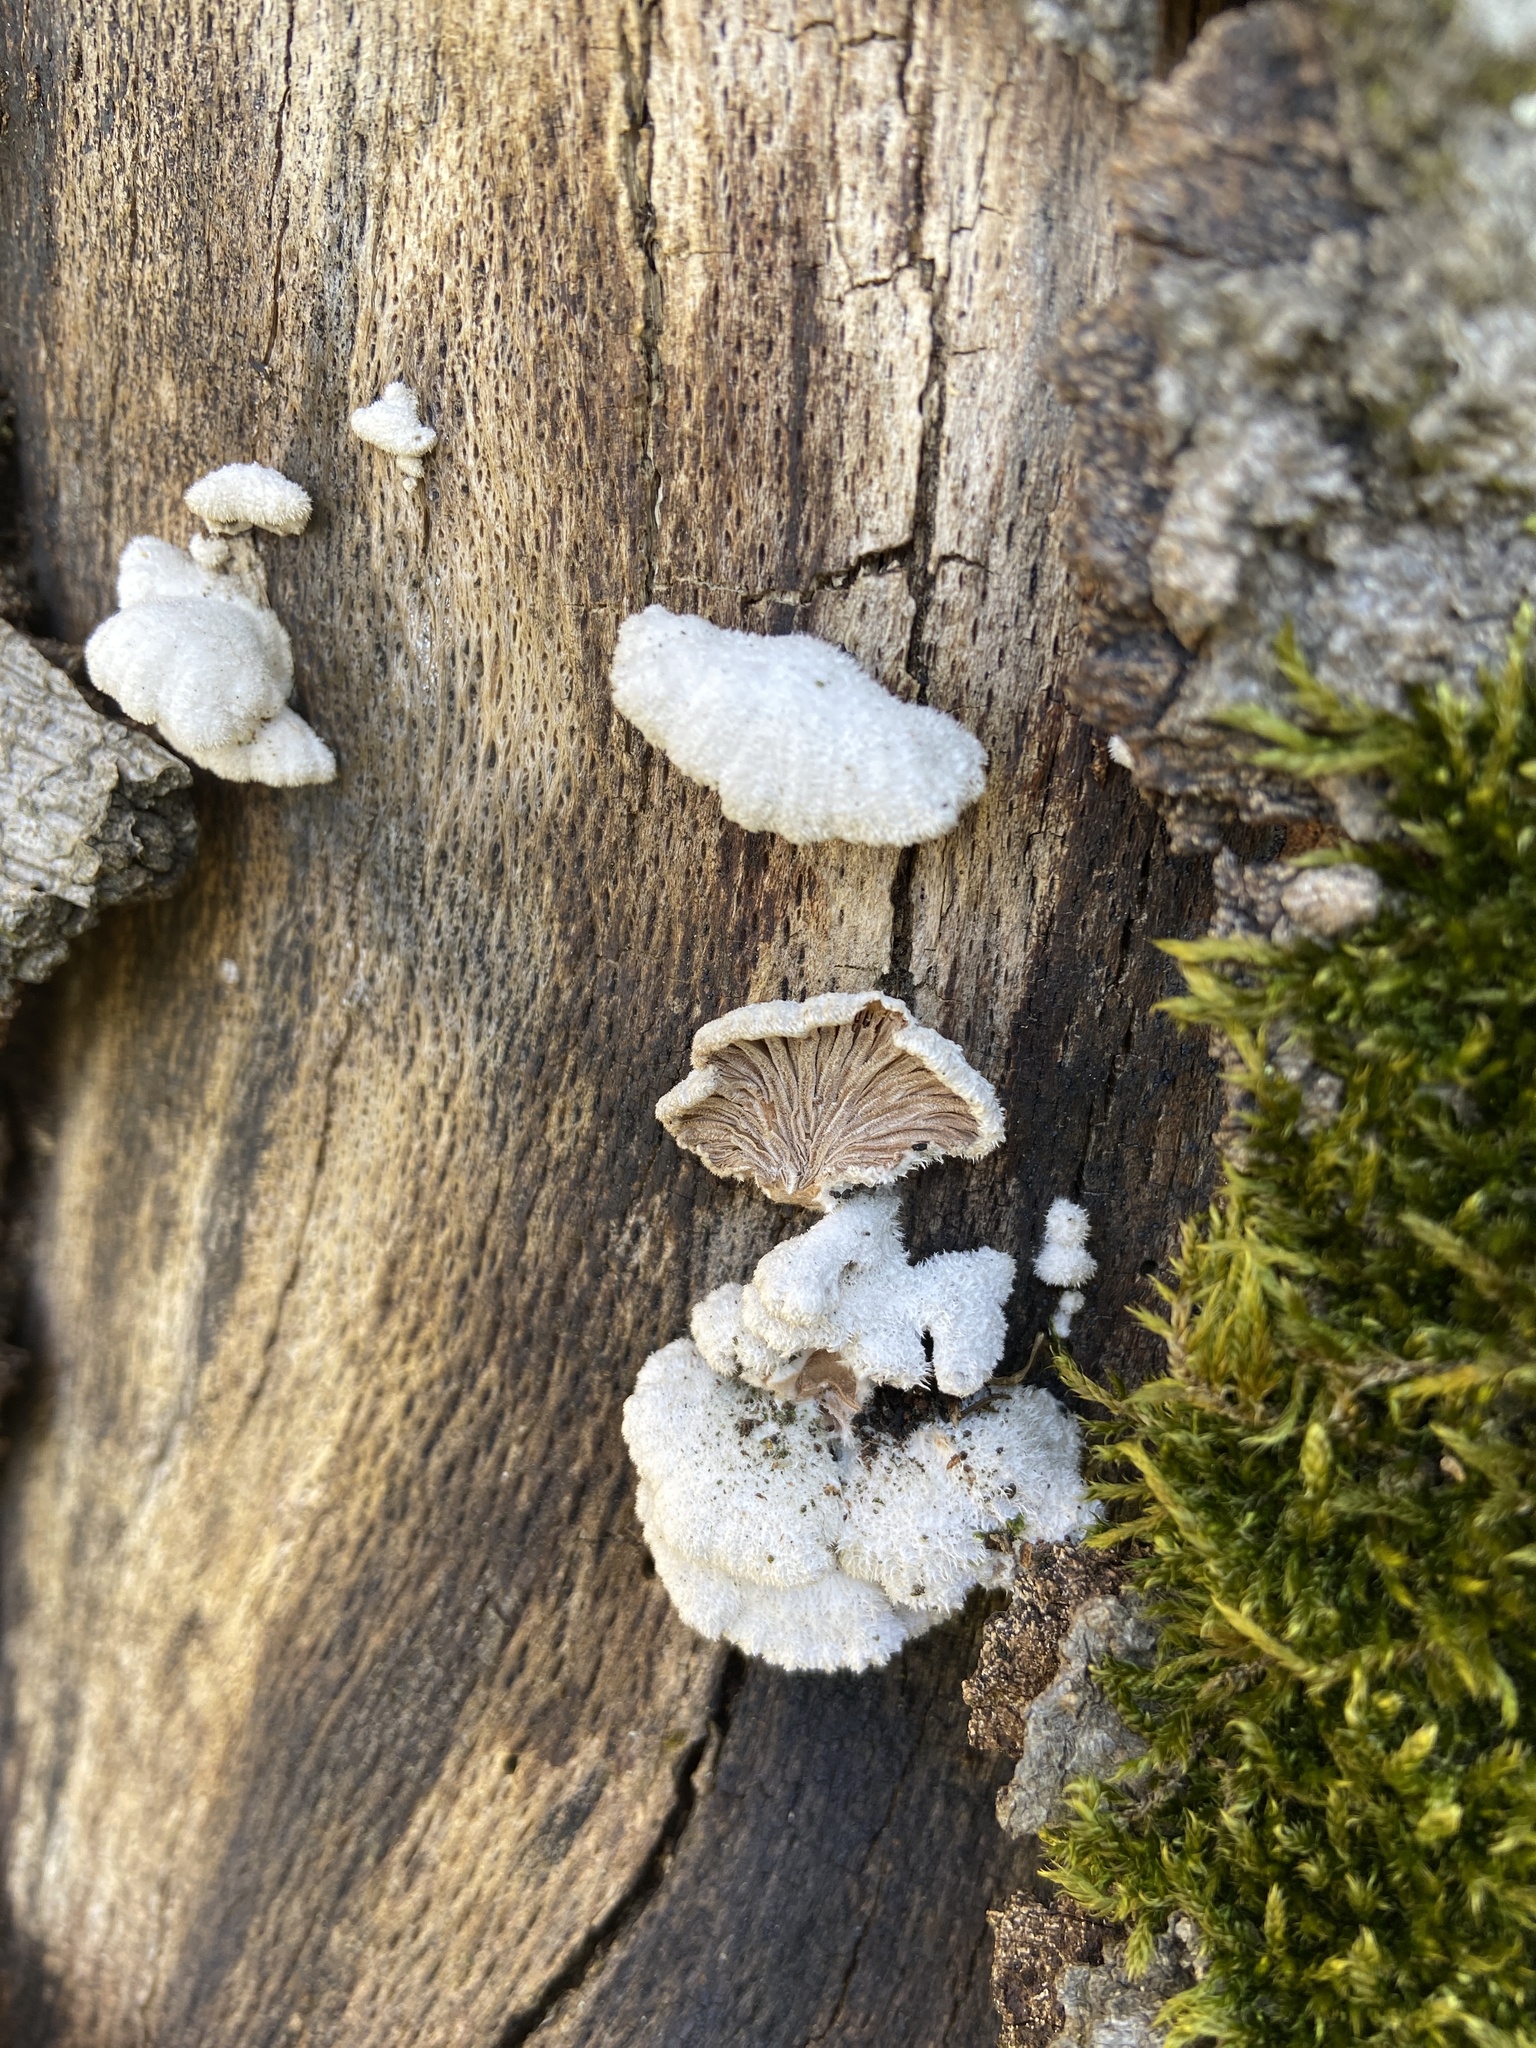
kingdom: Fungi
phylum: Basidiomycota
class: Agaricomycetes
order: Agaricales
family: Schizophyllaceae
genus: Schizophyllum
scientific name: Schizophyllum commune
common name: Common porecrust
